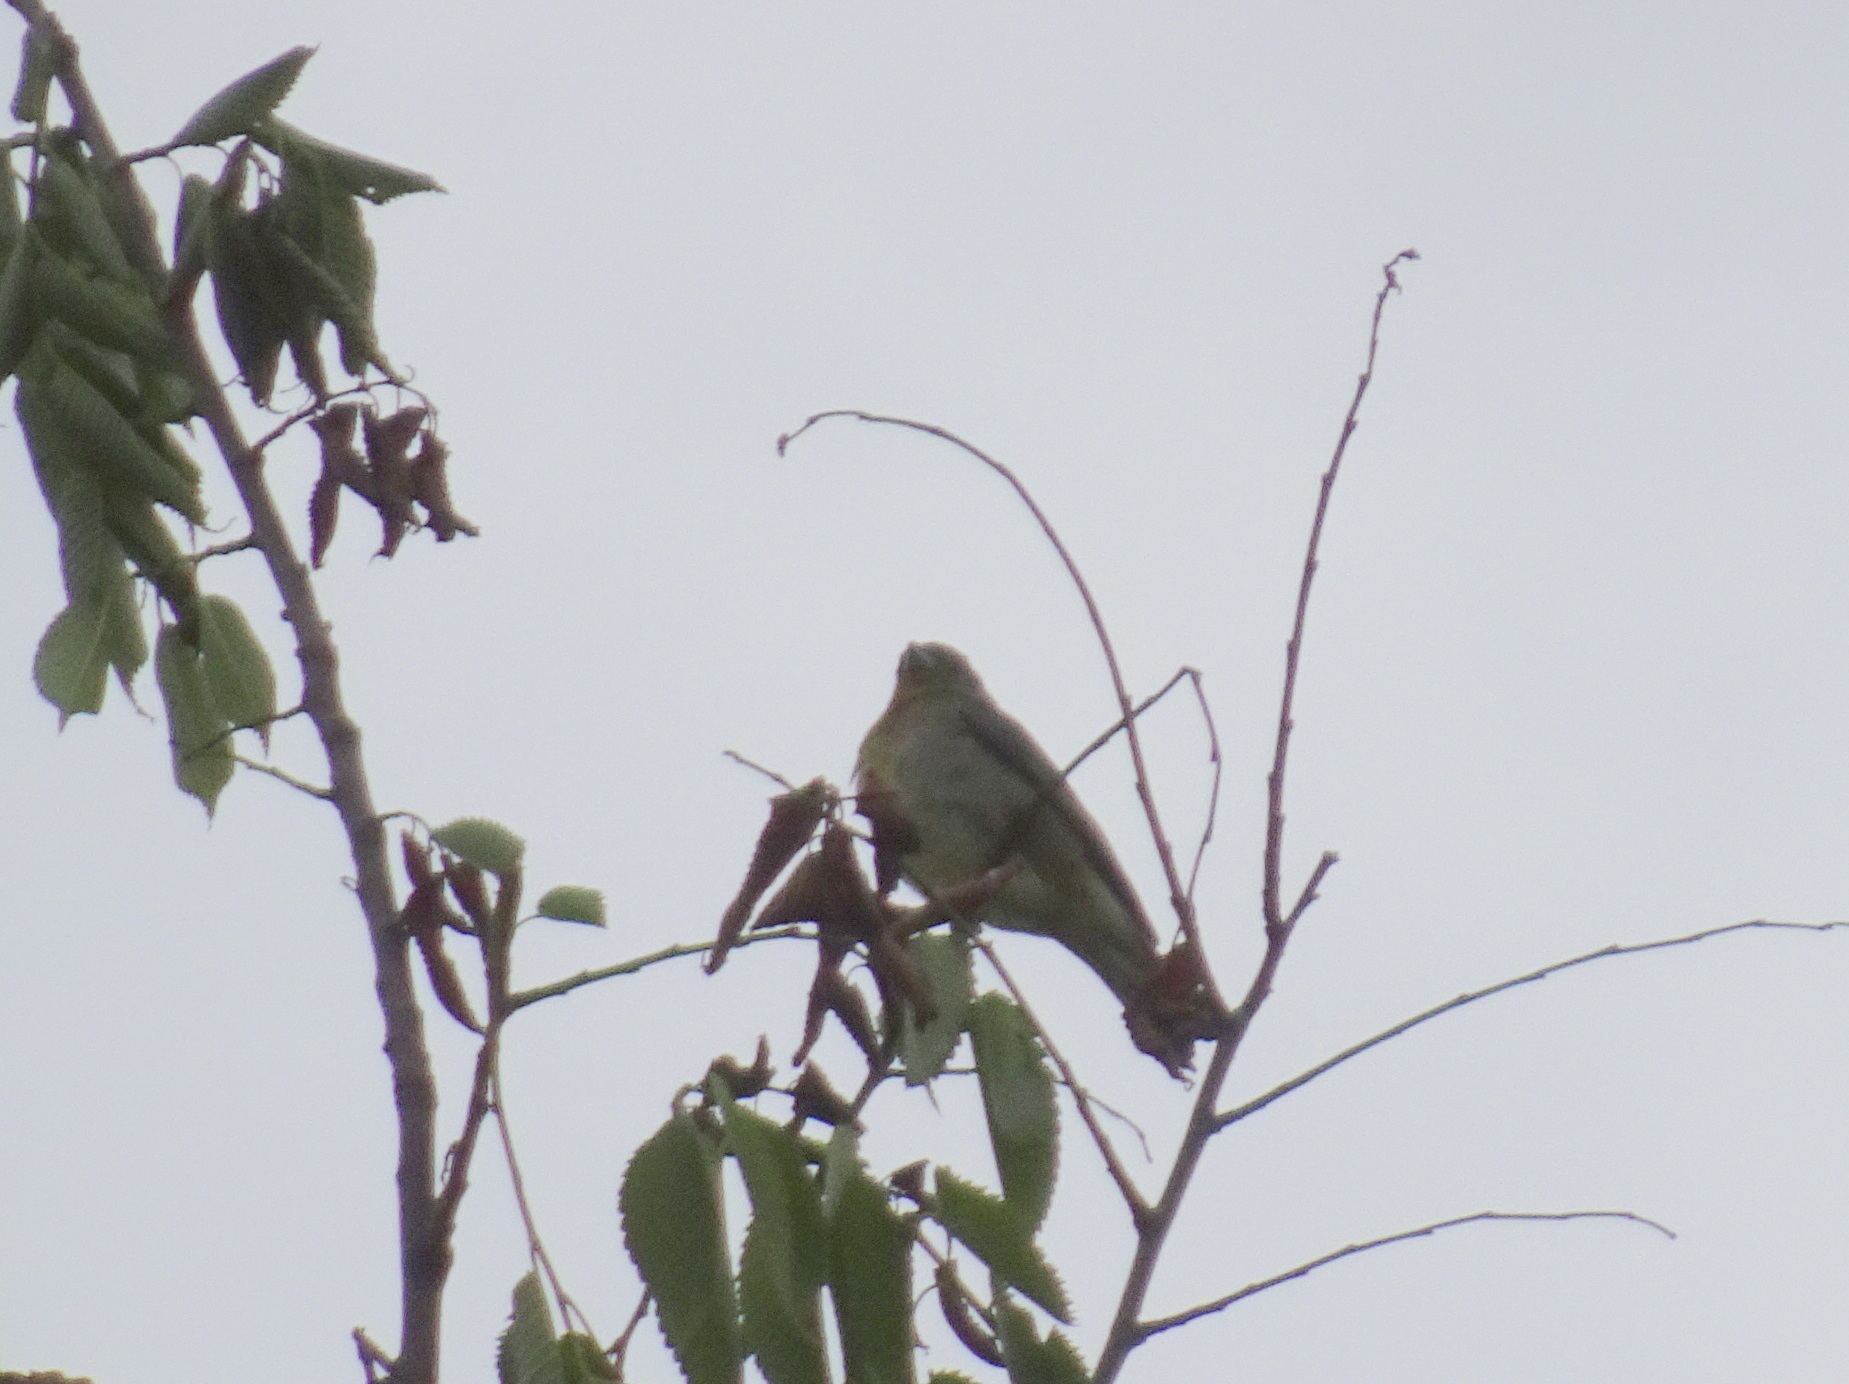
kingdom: Animalia
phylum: Chordata
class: Aves
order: Passeriformes
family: Cardinalidae
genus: Passerina
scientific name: Passerina ciris
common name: Painted bunting
